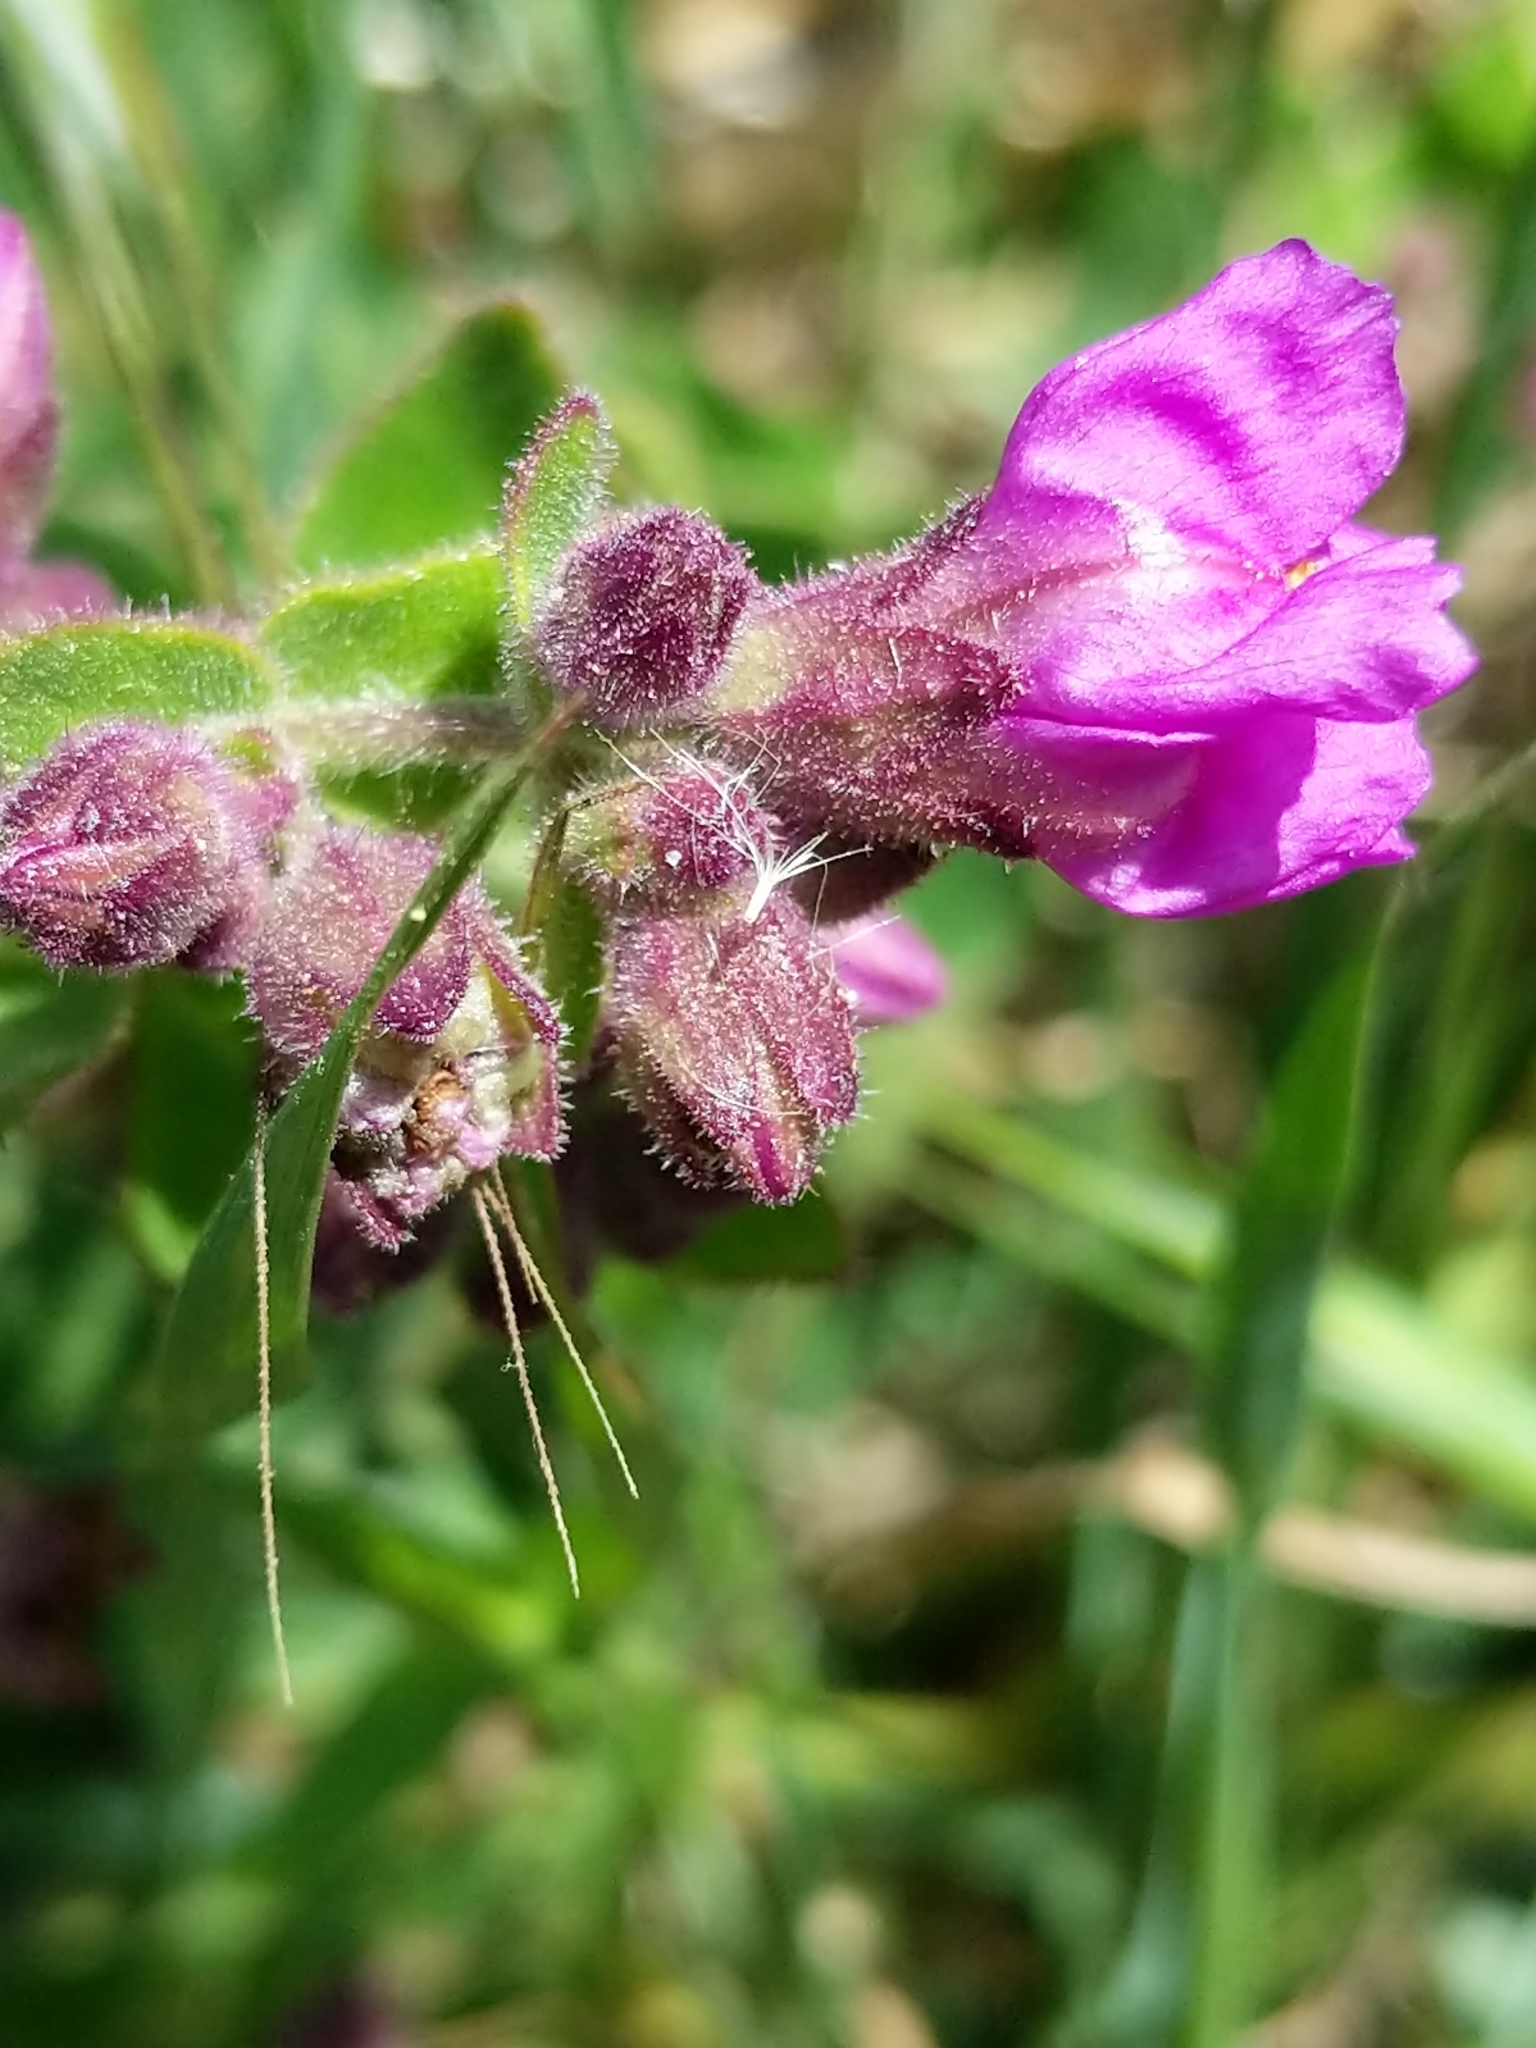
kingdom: Plantae
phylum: Tracheophyta
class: Magnoliopsida
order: Caryophyllales
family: Nyctaginaceae
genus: Mirabilis
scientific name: Mirabilis laevis
